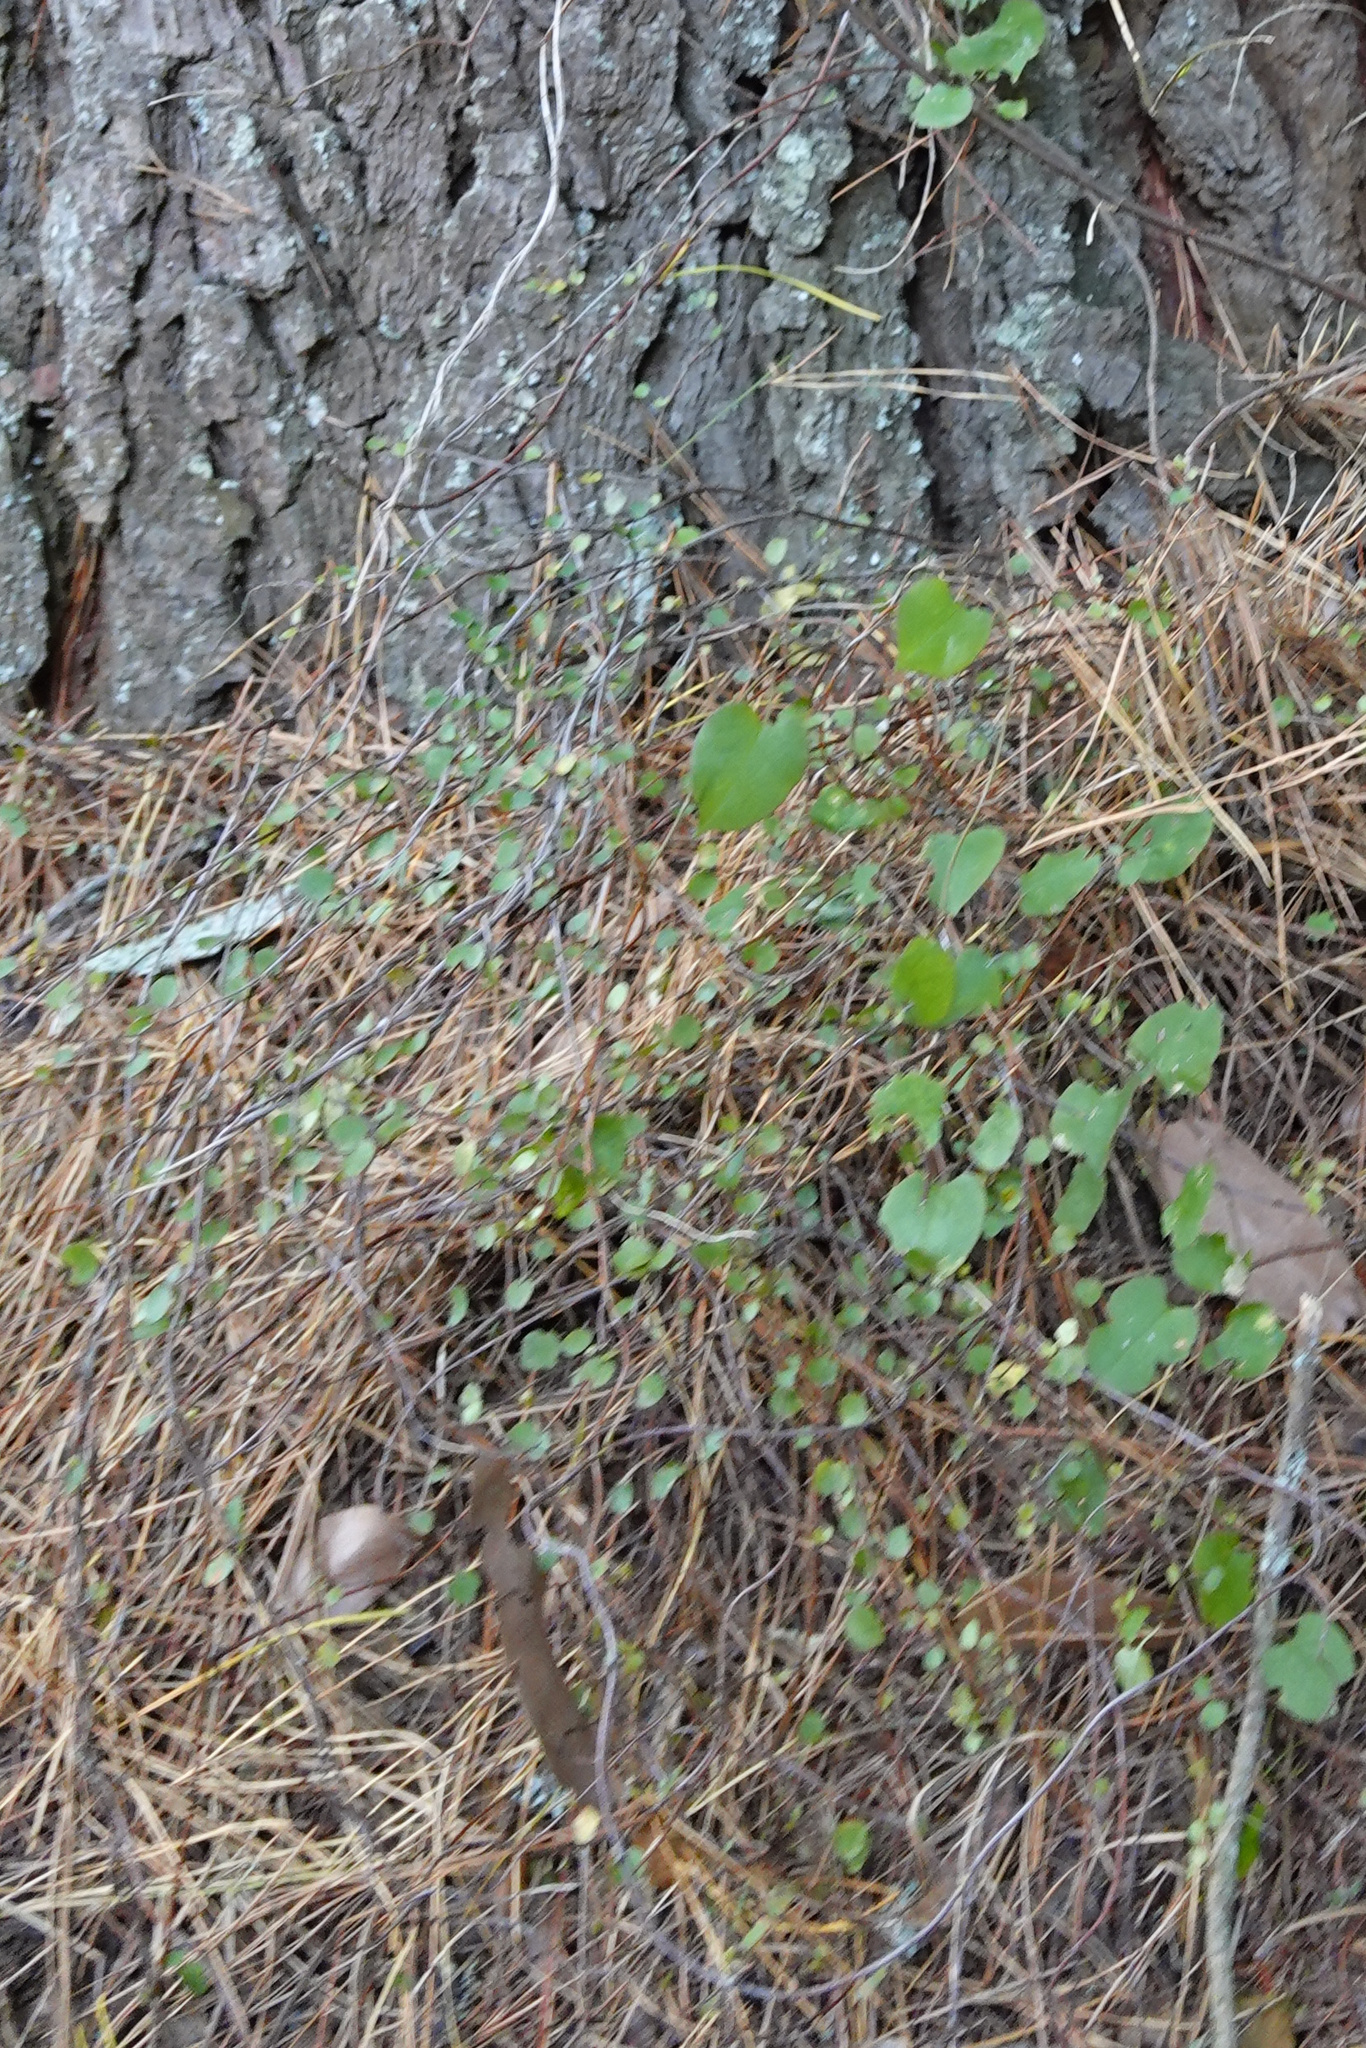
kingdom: Plantae
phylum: Tracheophyta
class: Magnoliopsida
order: Caryophyllales
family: Polygonaceae
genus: Muehlenbeckia
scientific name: Muehlenbeckia complexa
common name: Wireplant
